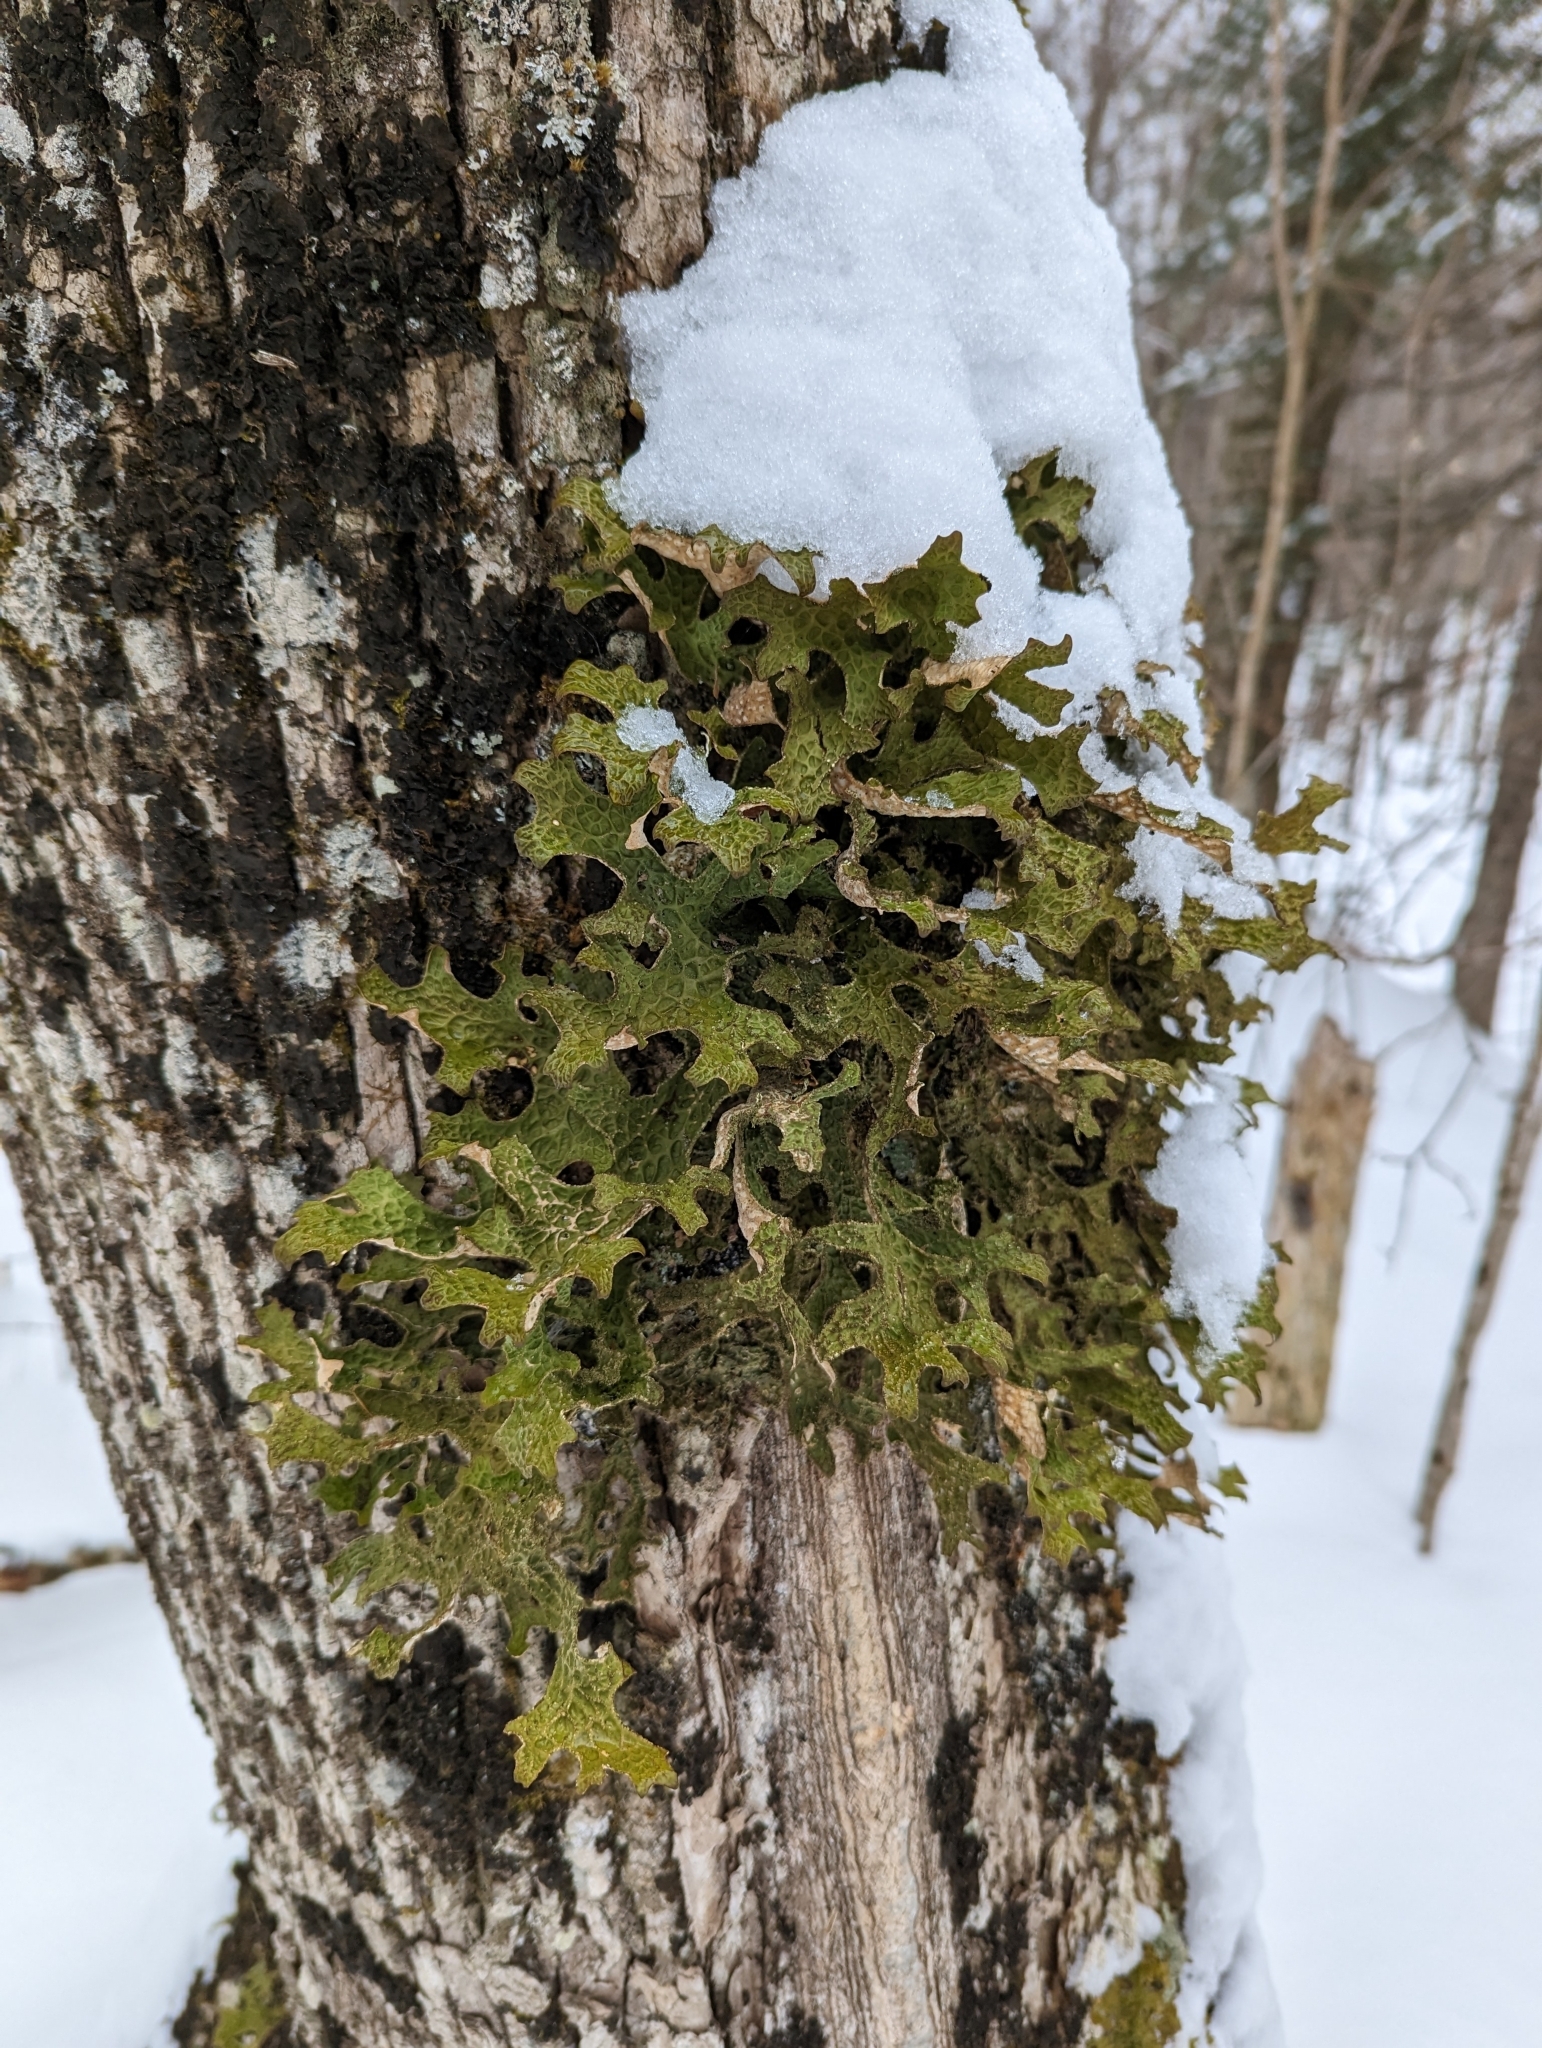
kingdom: Fungi
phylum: Ascomycota
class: Lecanoromycetes
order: Peltigerales
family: Lobariaceae
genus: Lobaria
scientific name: Lobaria pulmonaria
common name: Lungwort
